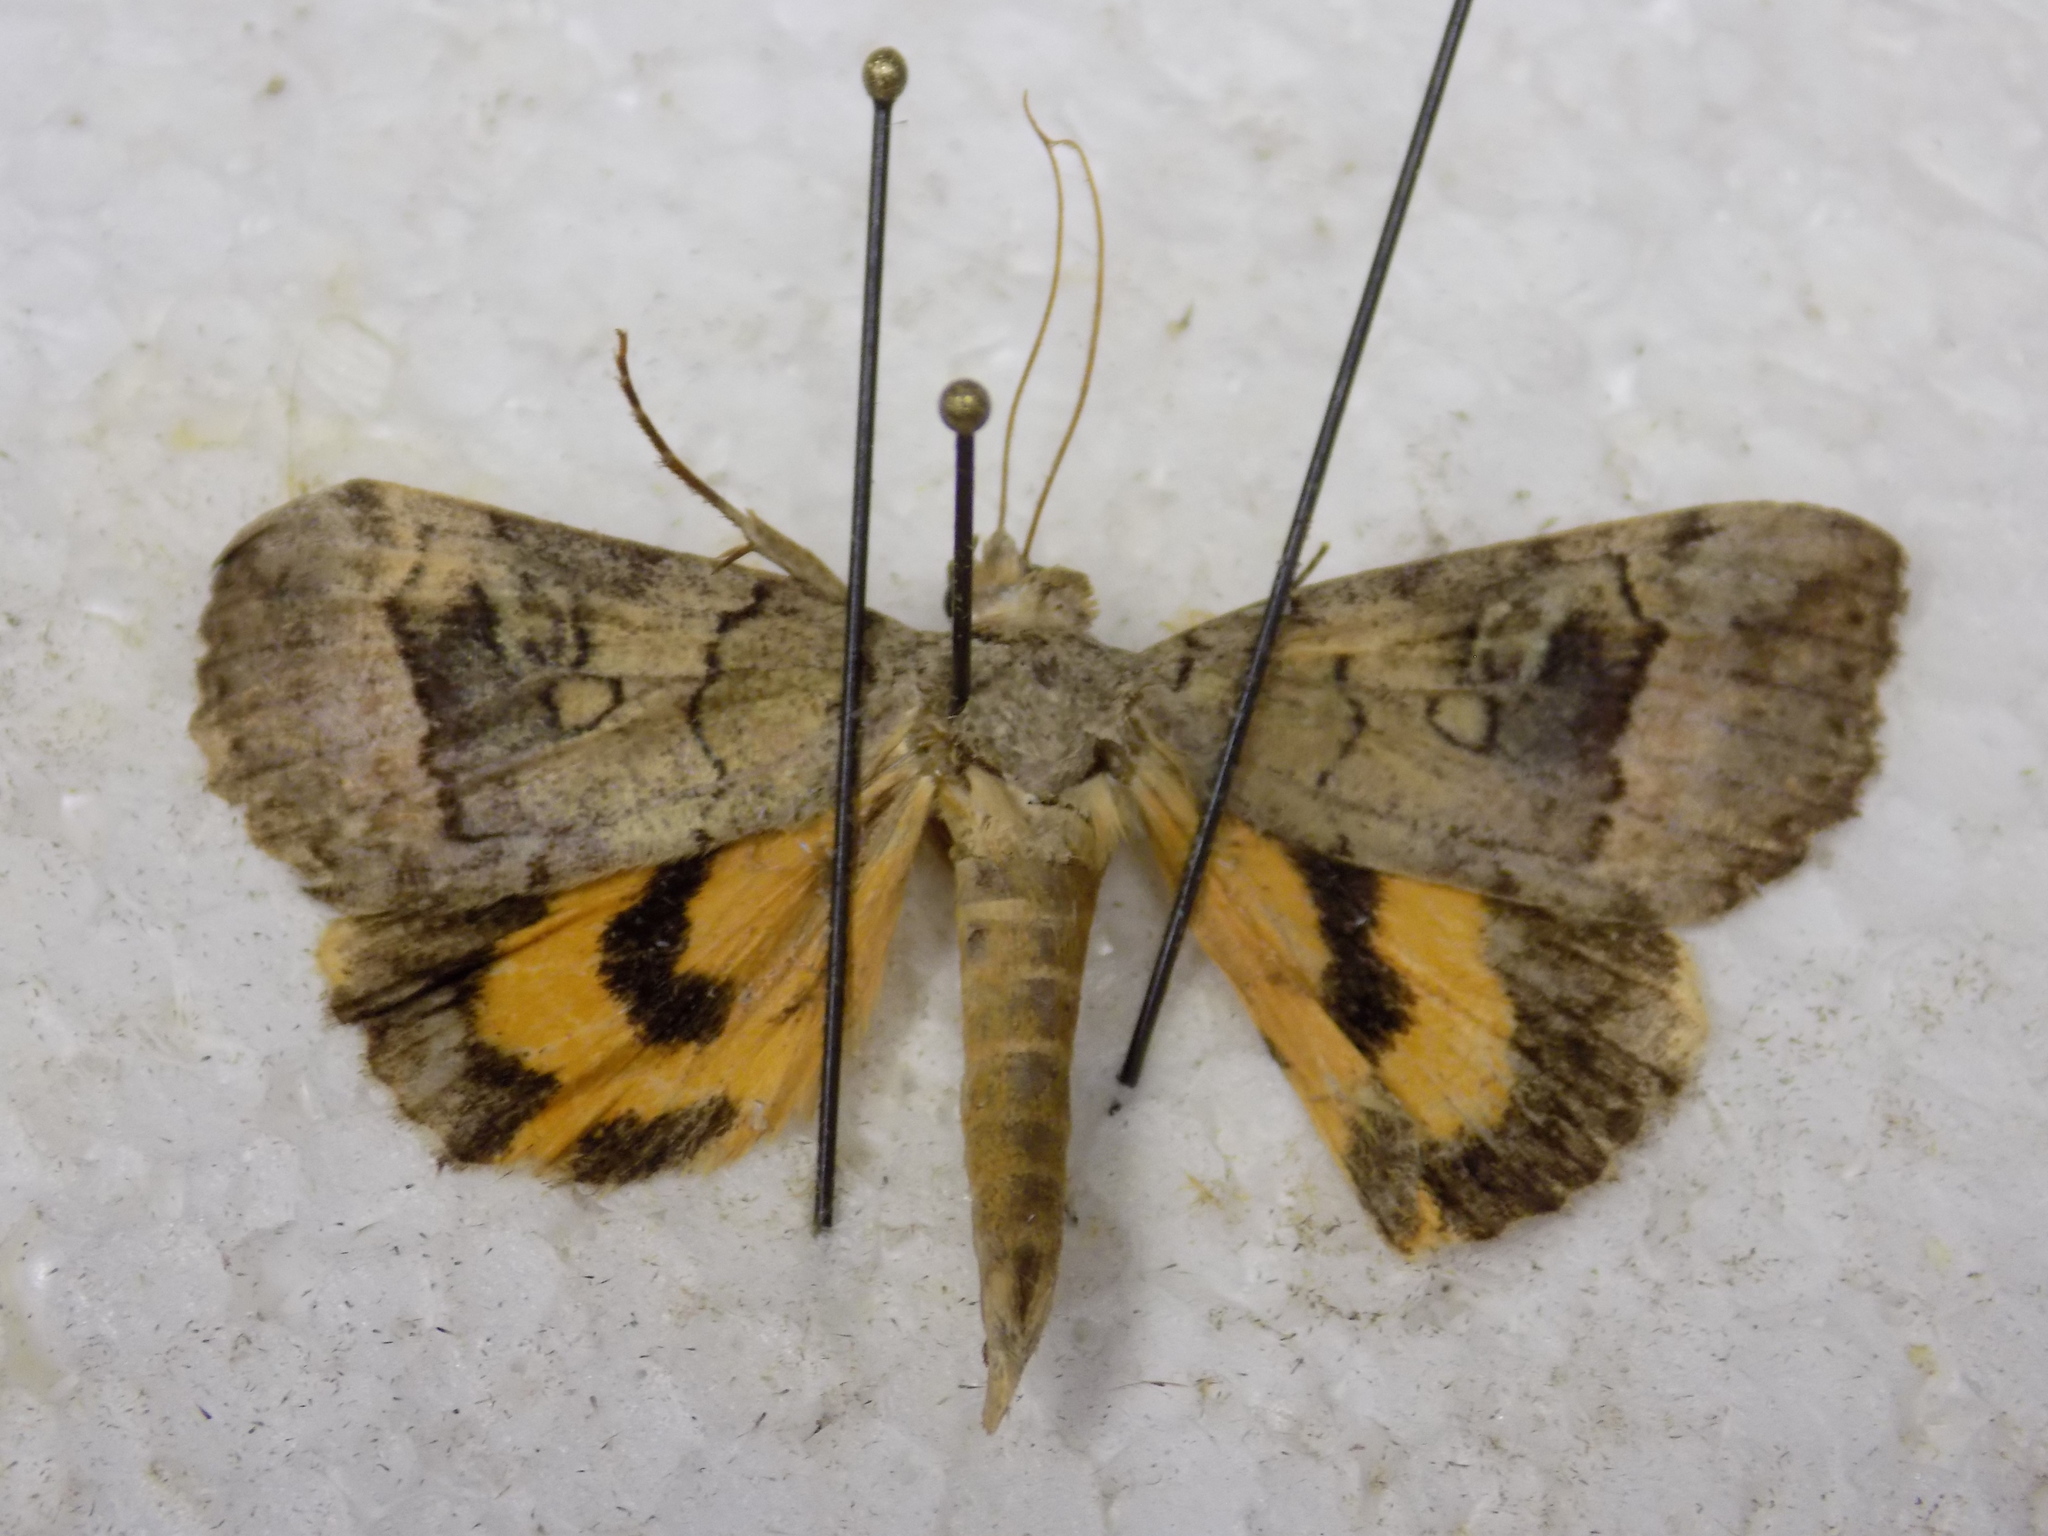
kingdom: Animalia
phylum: Arthropoda
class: Insecta
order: Lepidoptera
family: Erebidae
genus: Catocala
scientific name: Catocala similis
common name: Similar underwing
